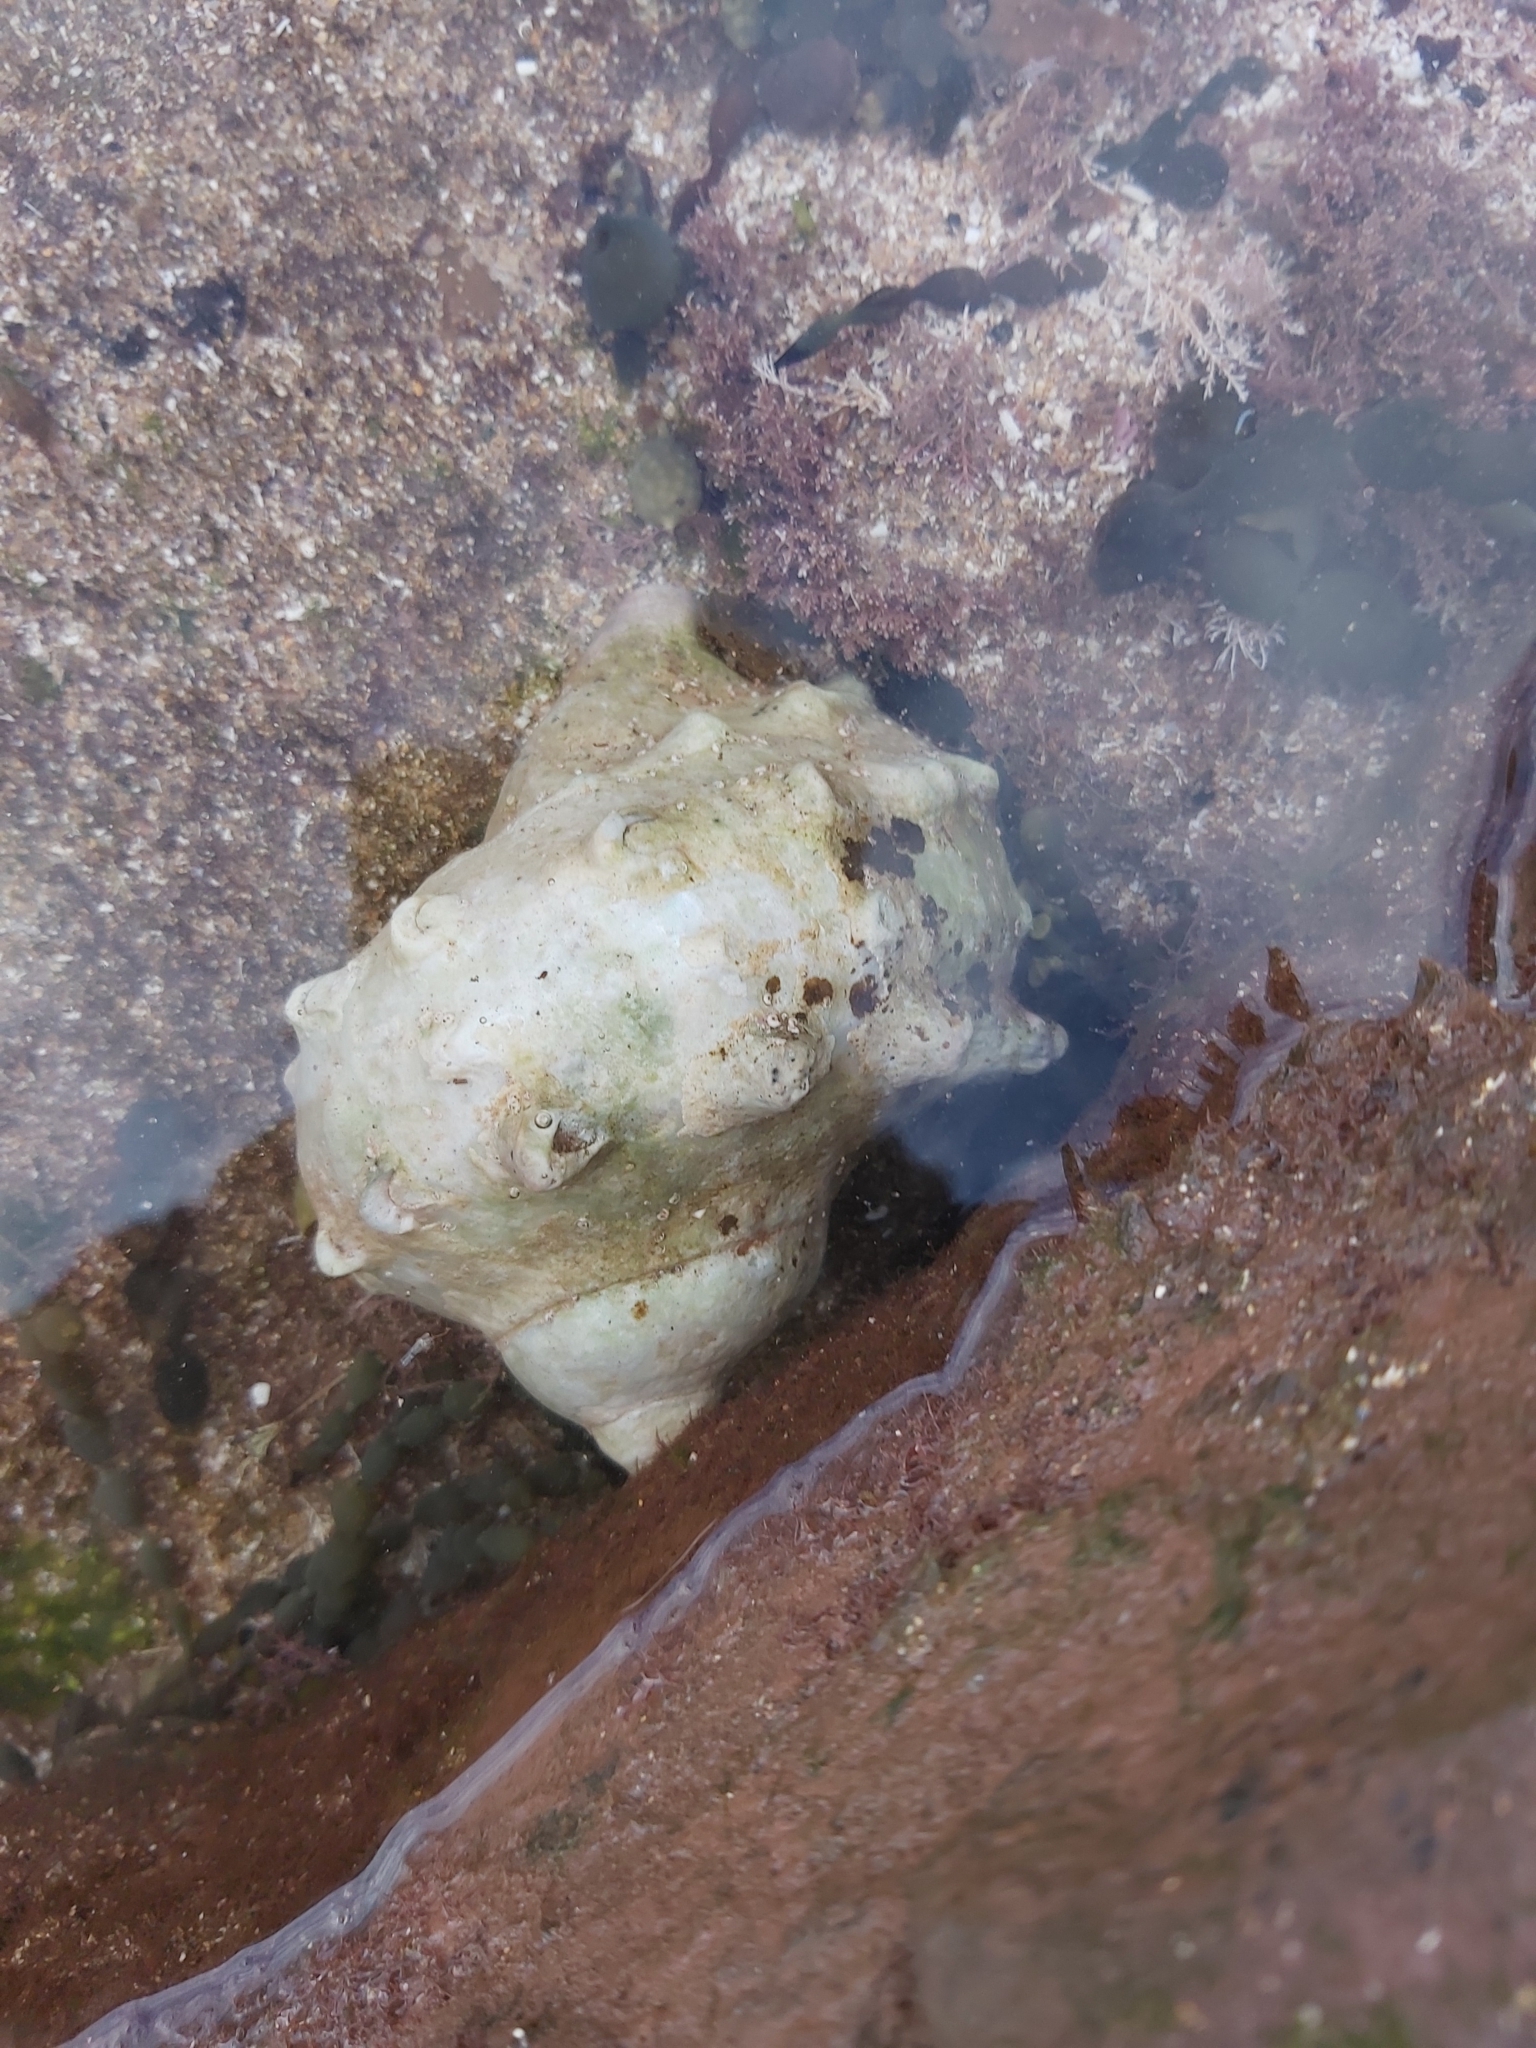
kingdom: Animalia
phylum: Mollusca
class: Gastropoda
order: Trochida
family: Turbinidae
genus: Turbo
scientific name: Turbo militaris
